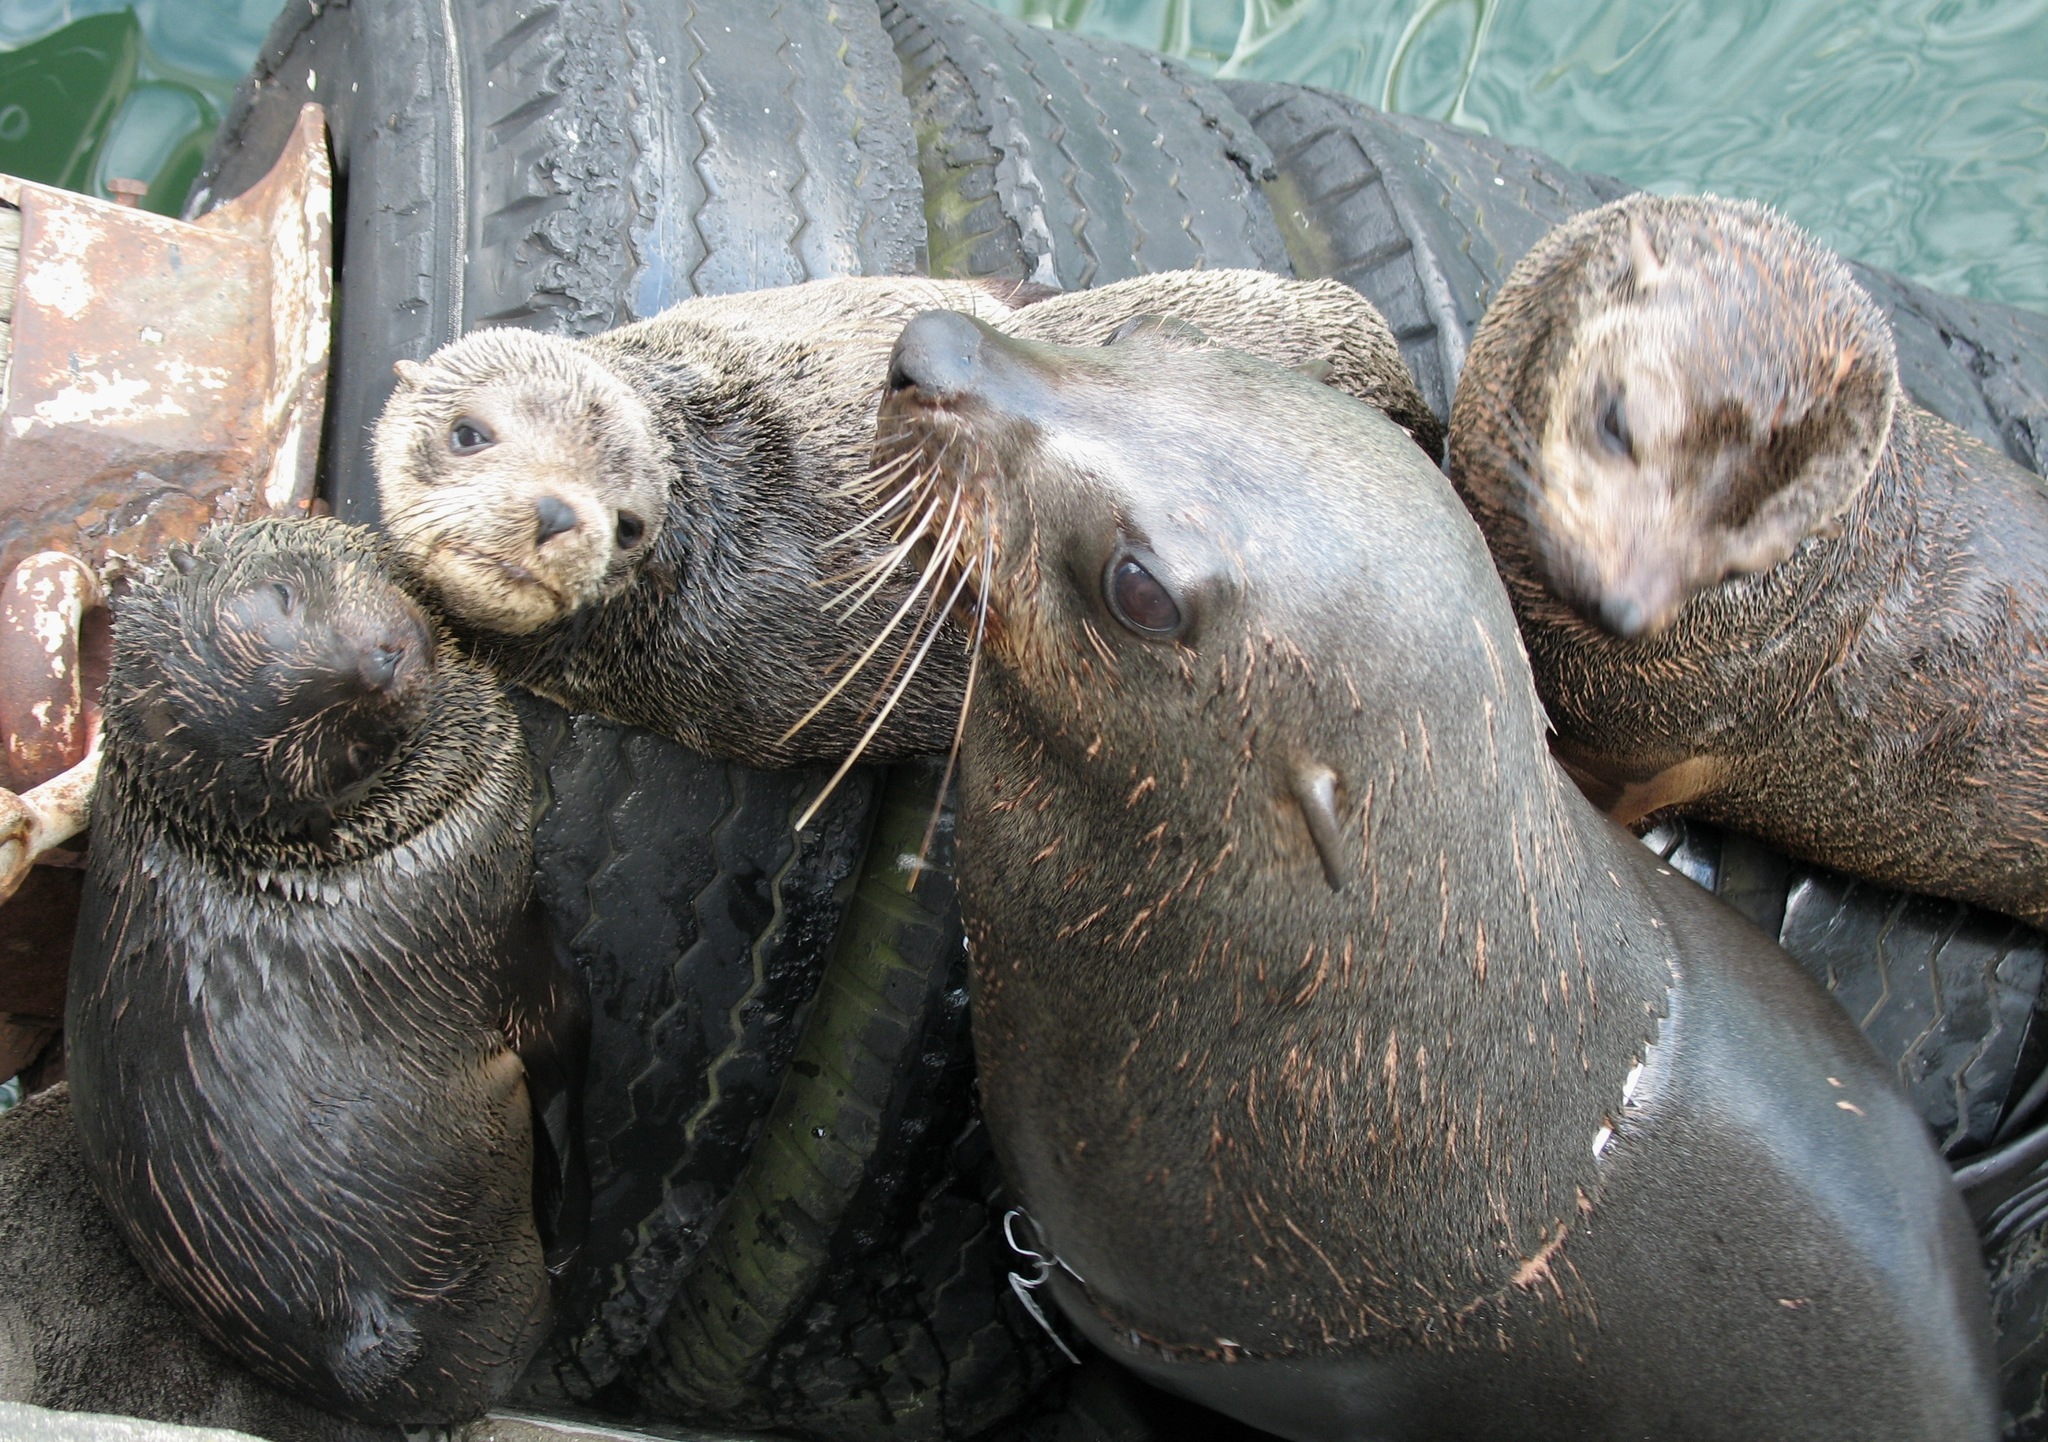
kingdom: Animalia
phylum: Chordata
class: Mammalia
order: Carnivora
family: Otariidae
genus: Arctocephalus
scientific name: Arctocephalus pusillus
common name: Brown fur seal
